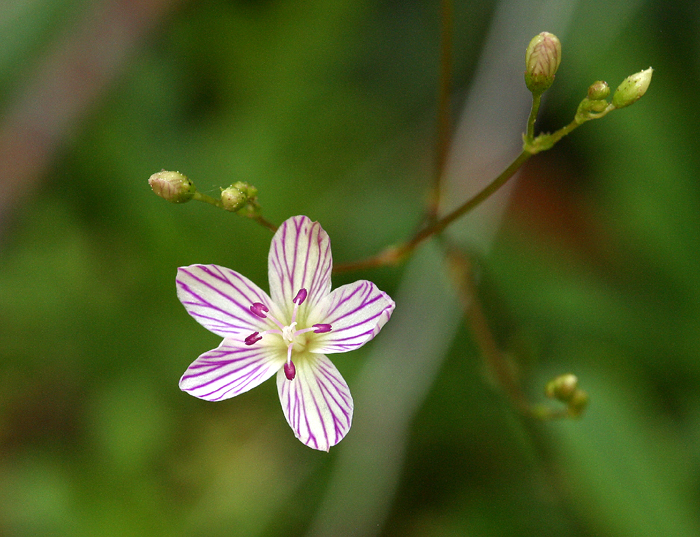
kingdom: Plantae
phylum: Tracheophyta
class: Magnoliopsida
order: Caryophyllales
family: Montiaceae
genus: Lewisia
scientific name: Lewisia cantelovii
